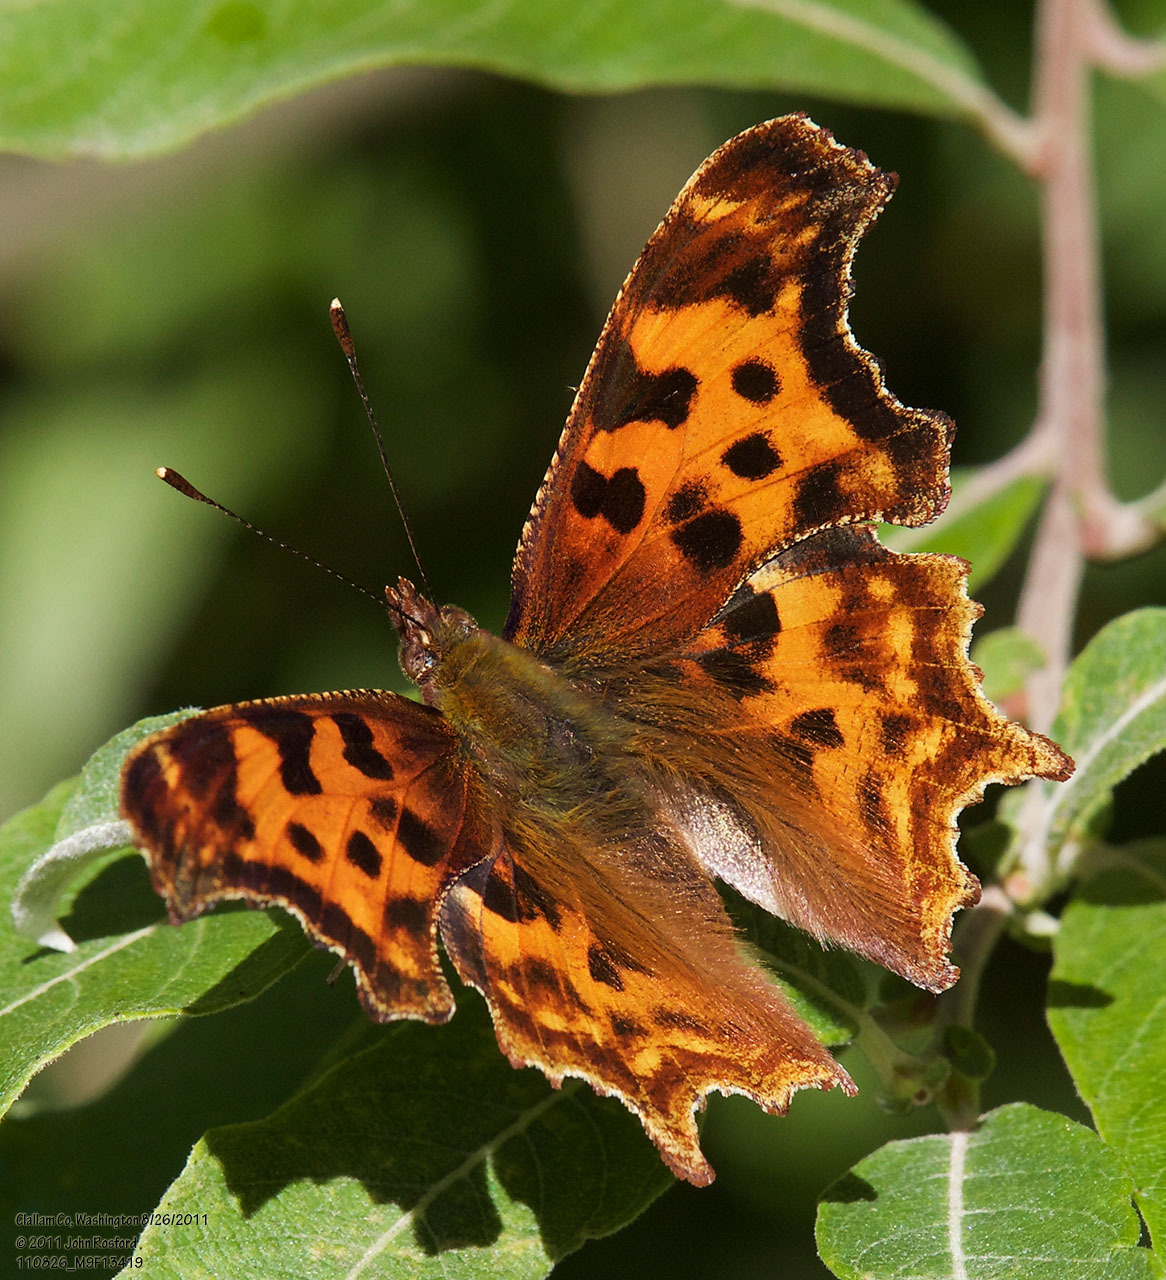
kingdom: Animalia
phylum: Arthropoda
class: Insecta
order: Lepidoptera
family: Nymphalidae
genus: Polygonia
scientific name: Polygonia satyrus
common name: Satyr angle wing
